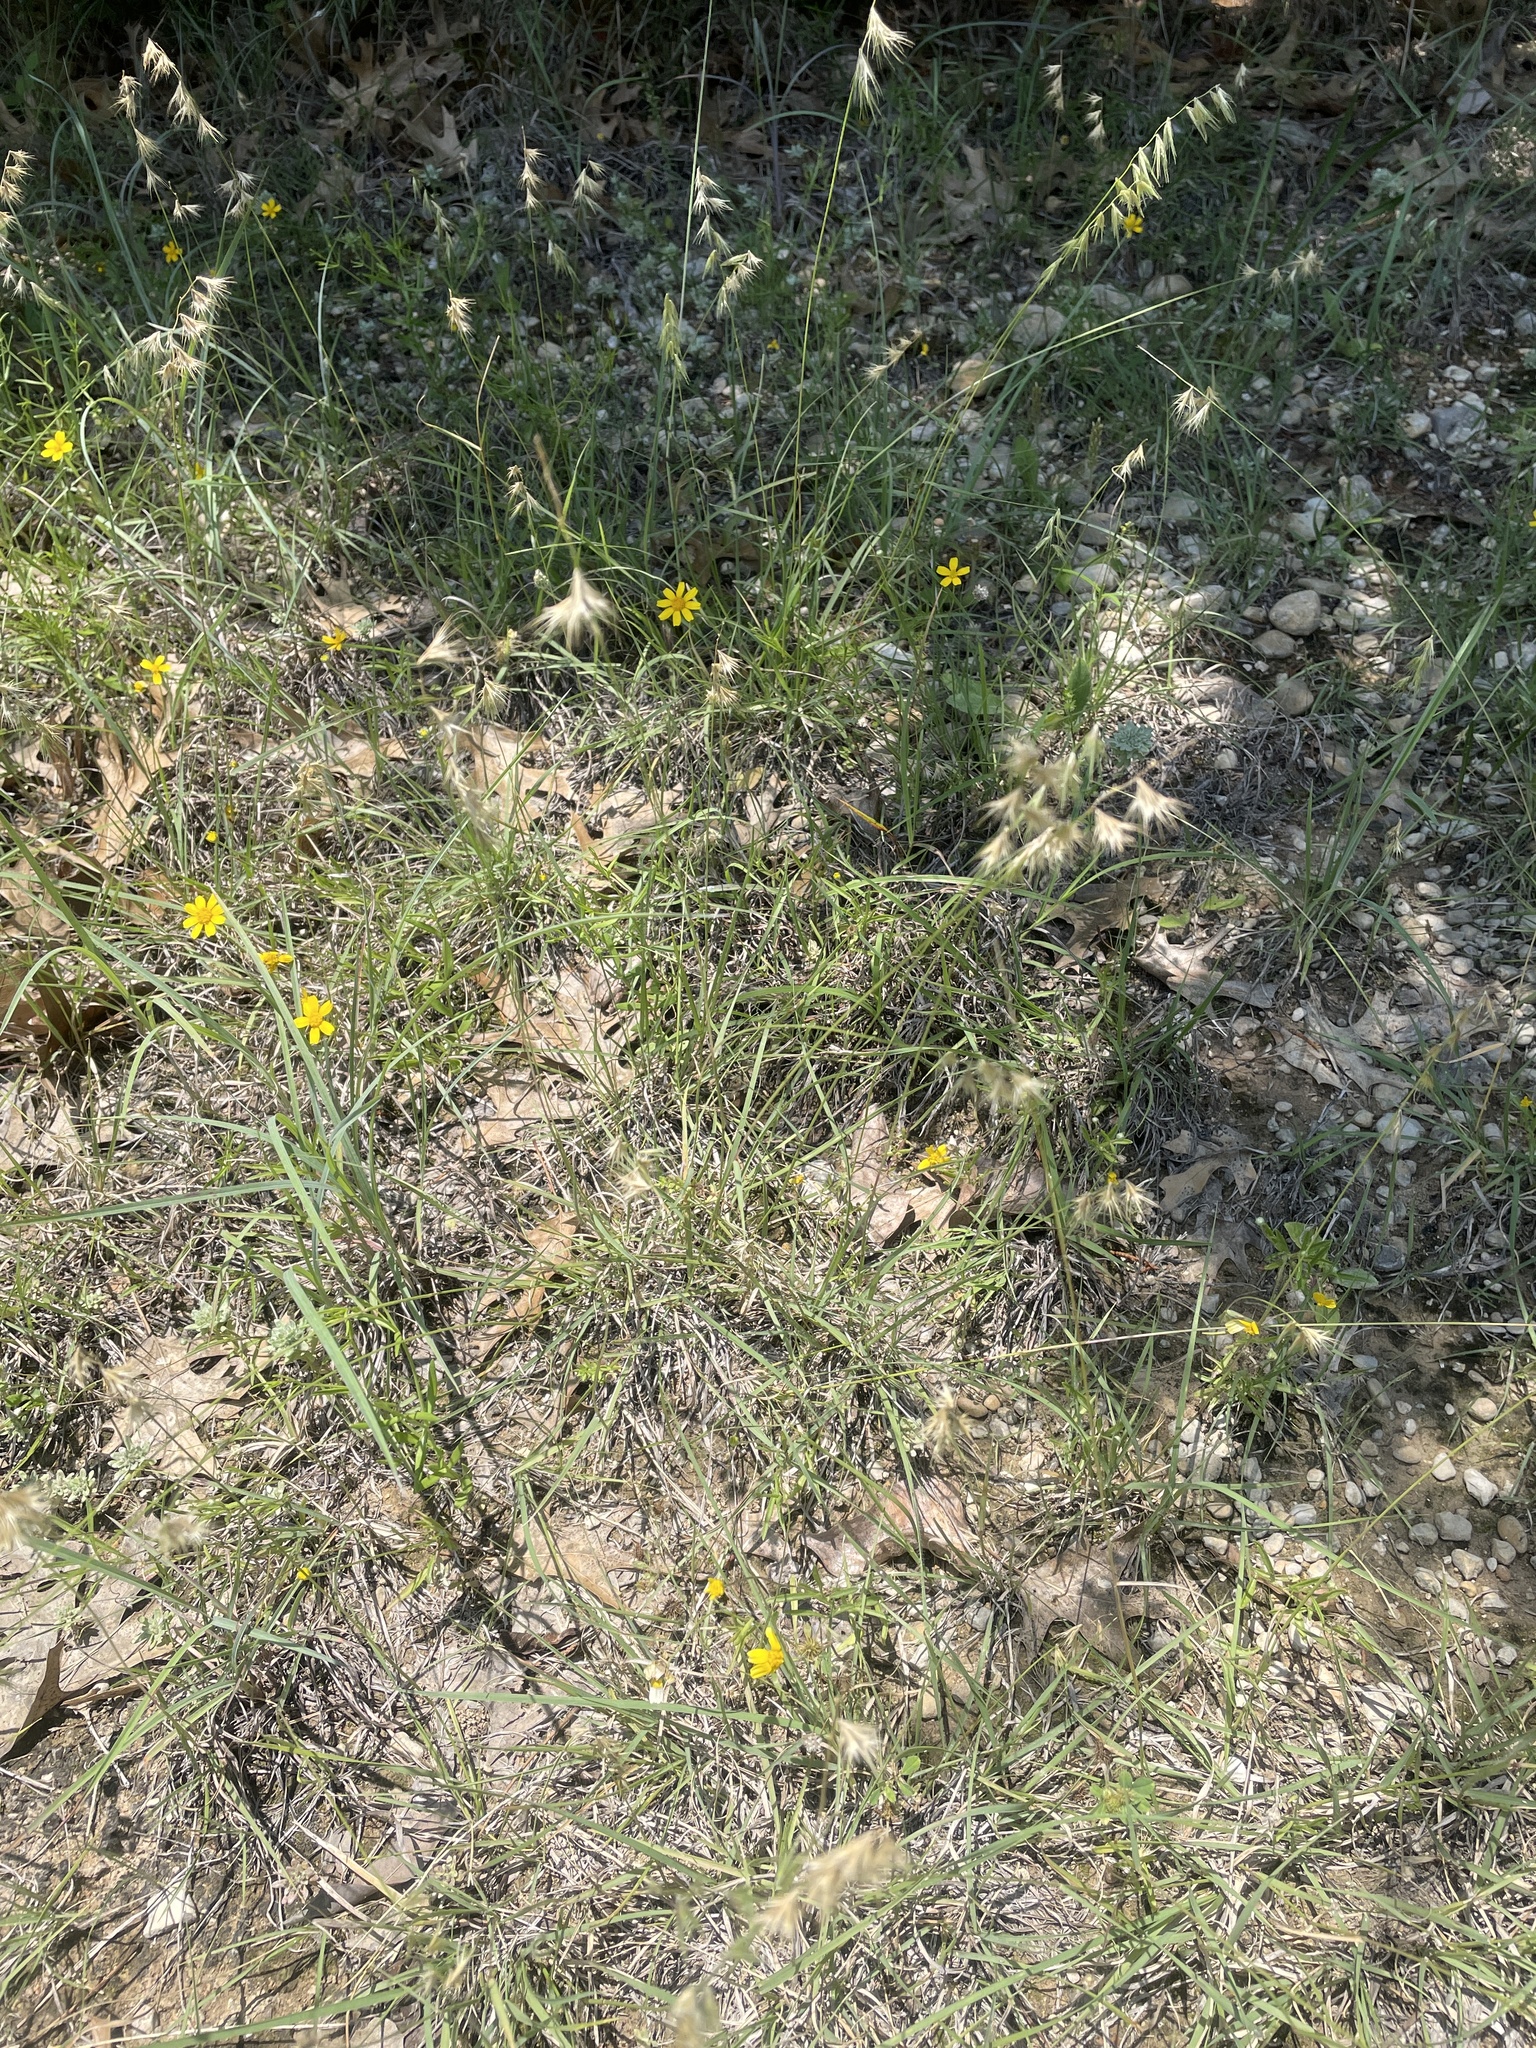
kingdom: Plantae
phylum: Tracheophyta
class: Liliopsida
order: Poales
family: Poaceae
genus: Bouteloua
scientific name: Bouteloua rigidiseta
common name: Texas grama
